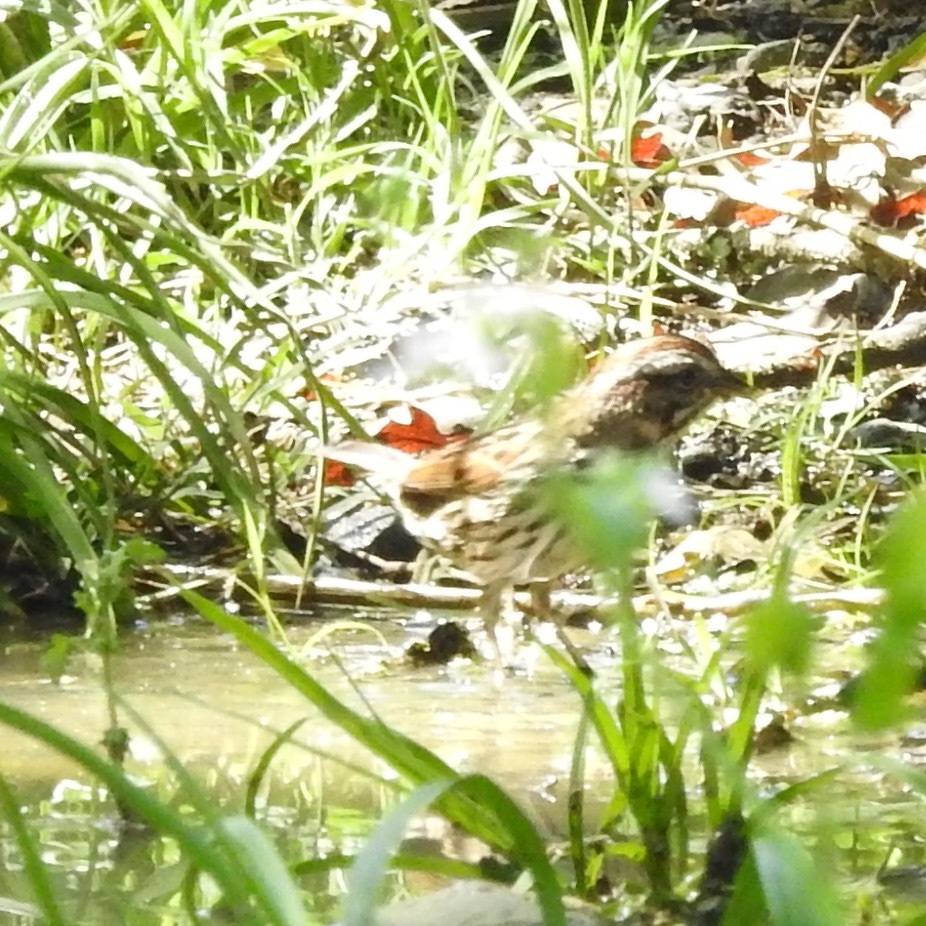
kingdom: Animalia
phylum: Chordata
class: Aves
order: Passeriformes
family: Passerellidae
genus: Melospiza
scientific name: Melospiza melodia
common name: Song sparrow
